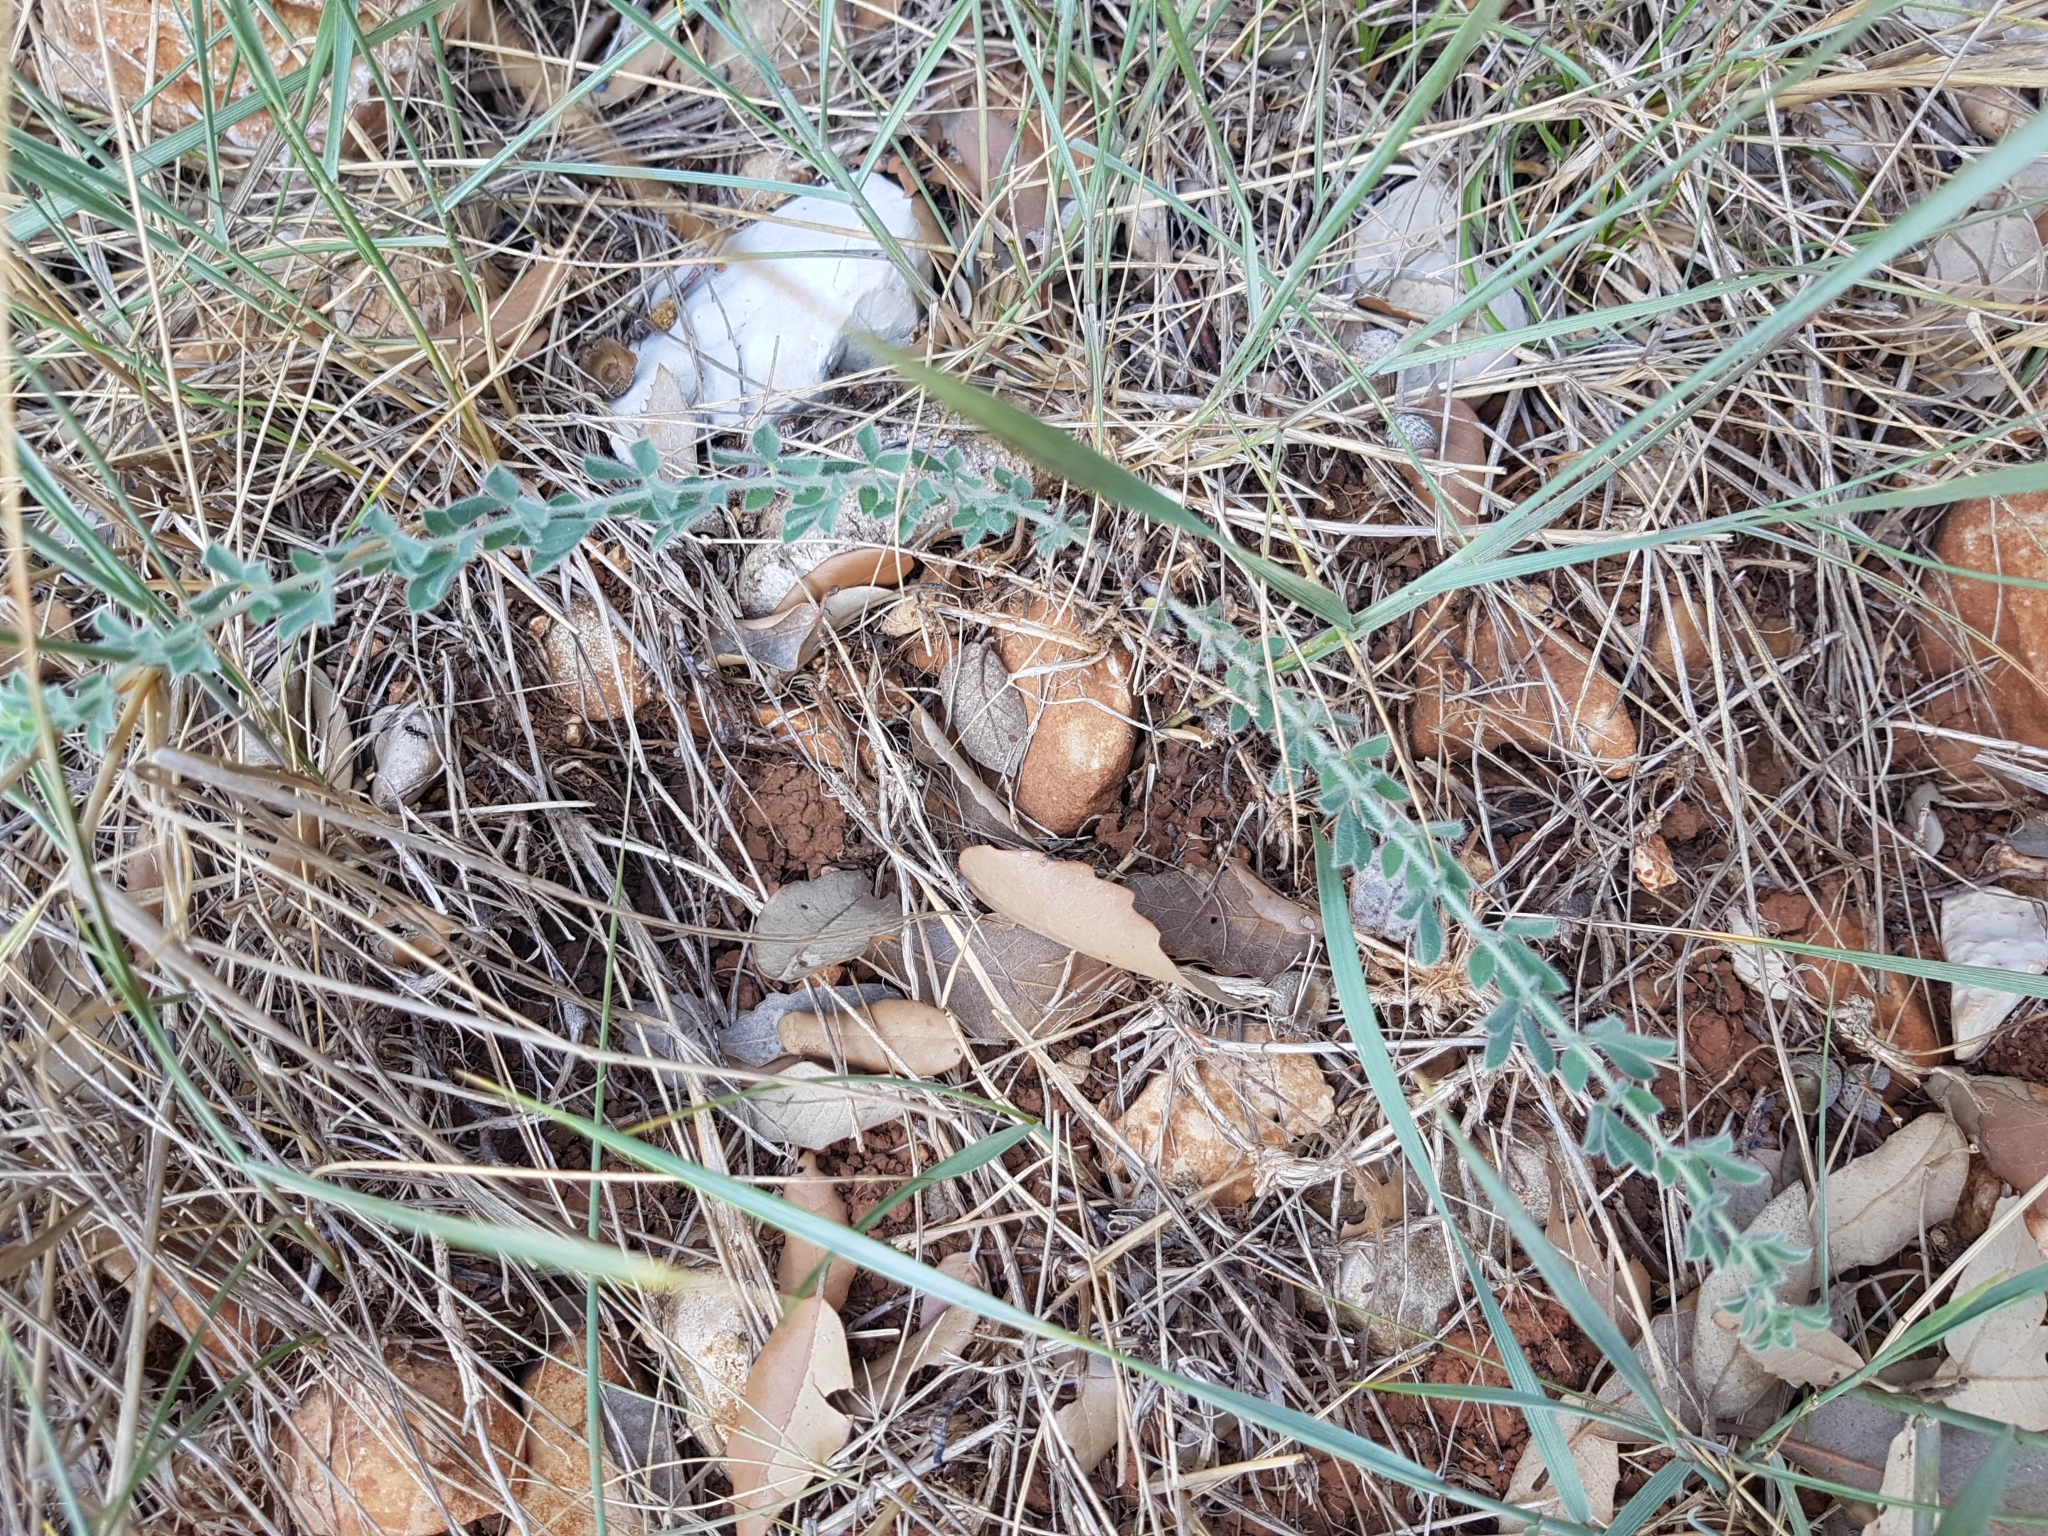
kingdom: Plantae
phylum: Tracheophyta
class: Magnoliopsida
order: Fabales
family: Fabaceae
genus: Lotus
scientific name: Lotus hirsutus
